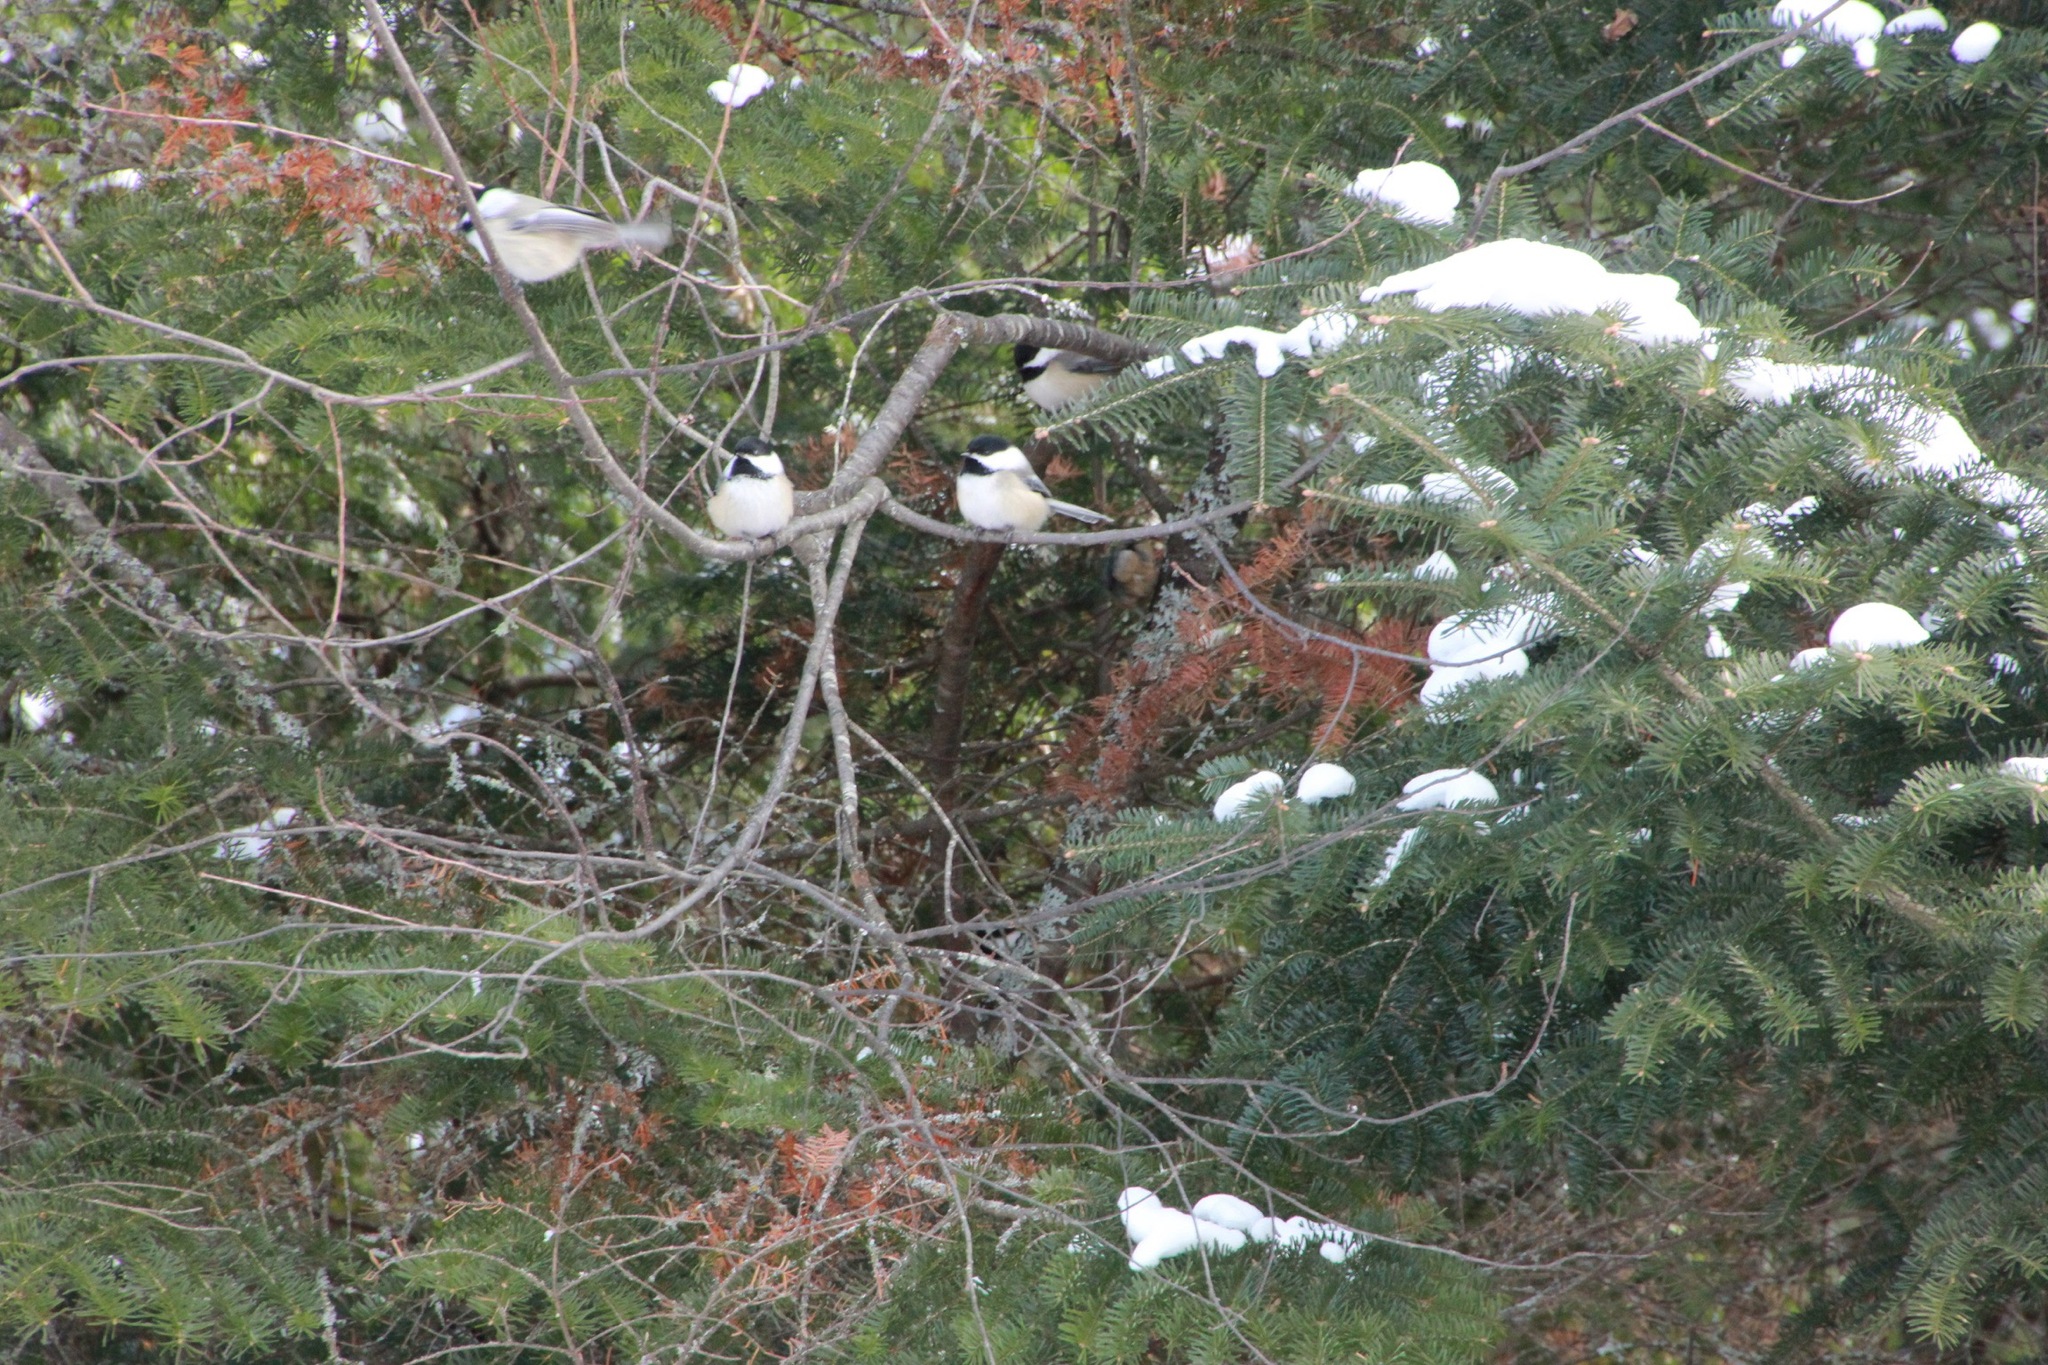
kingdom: Animalia
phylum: Chordata
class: Aves
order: Passeriformes
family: Paridae
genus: Poecile
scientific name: Poecile atricapillus
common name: Black-capped chickadee
